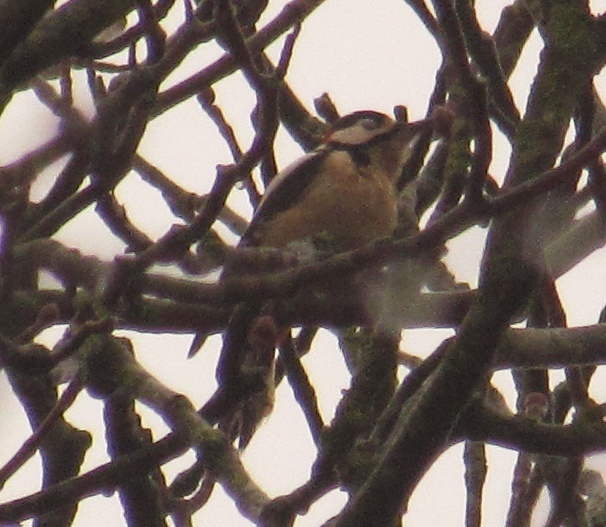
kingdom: Animalia
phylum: Chordata
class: Aves
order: Piciformes
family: Picidae
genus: Dendrocopos
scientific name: Dendrocopos major
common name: Great spotted woodpecker
